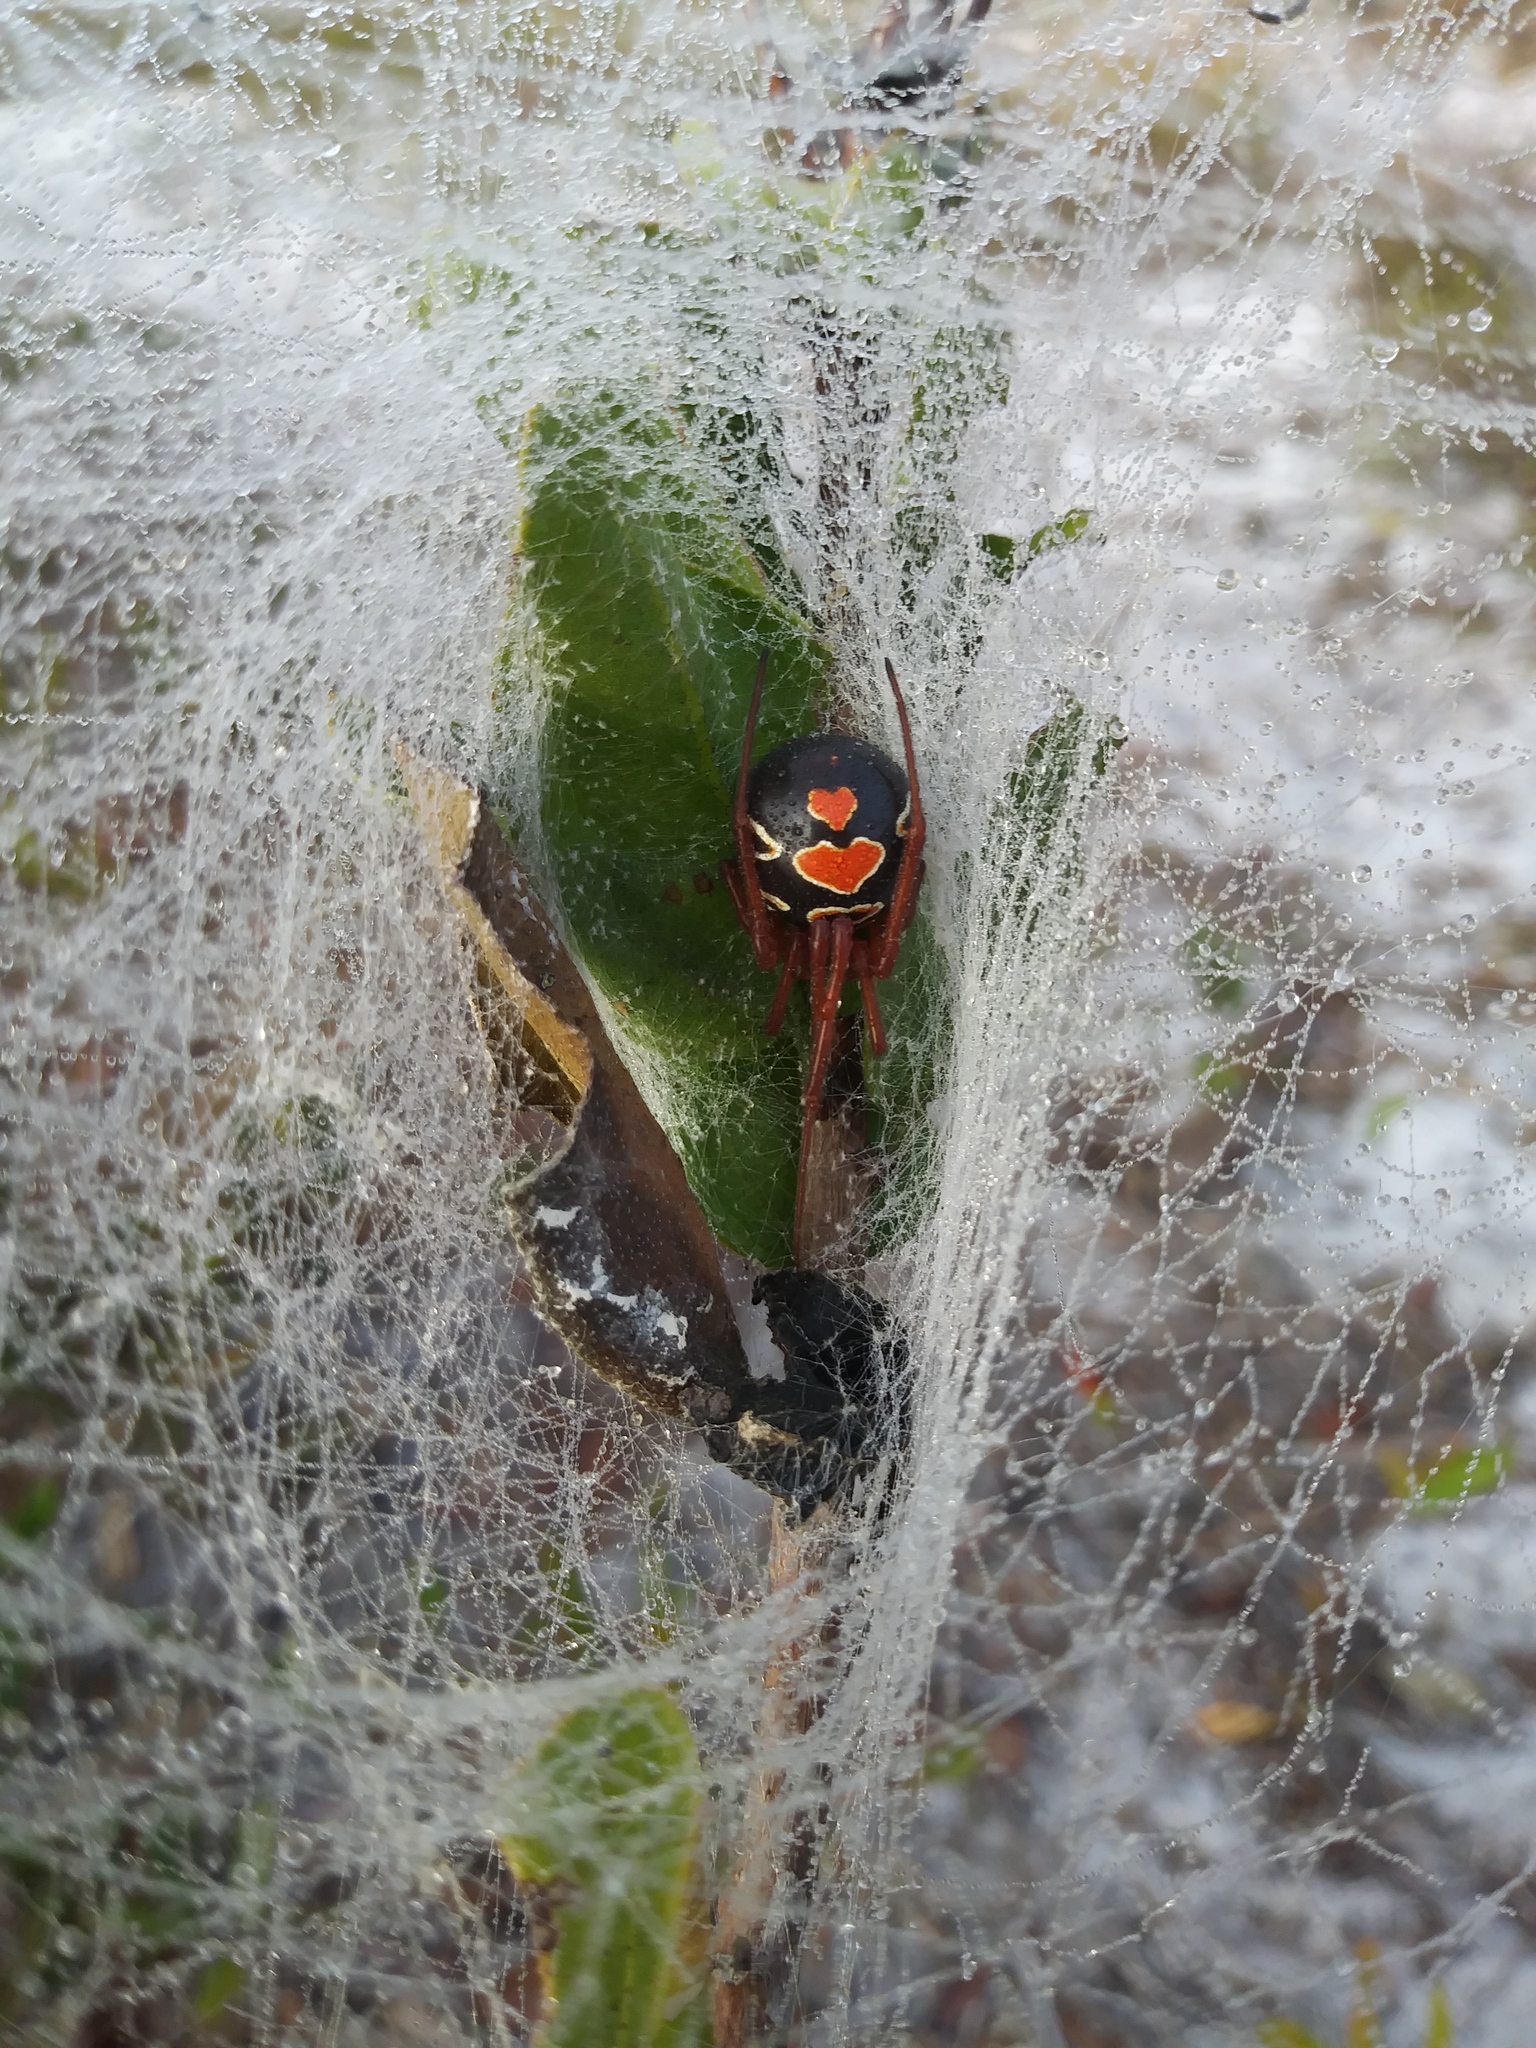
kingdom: Animalia
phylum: Arthropoda
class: Arachnida
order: Araneae
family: Theridiidae
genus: Latrodectus
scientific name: Latrodectus bishopi
